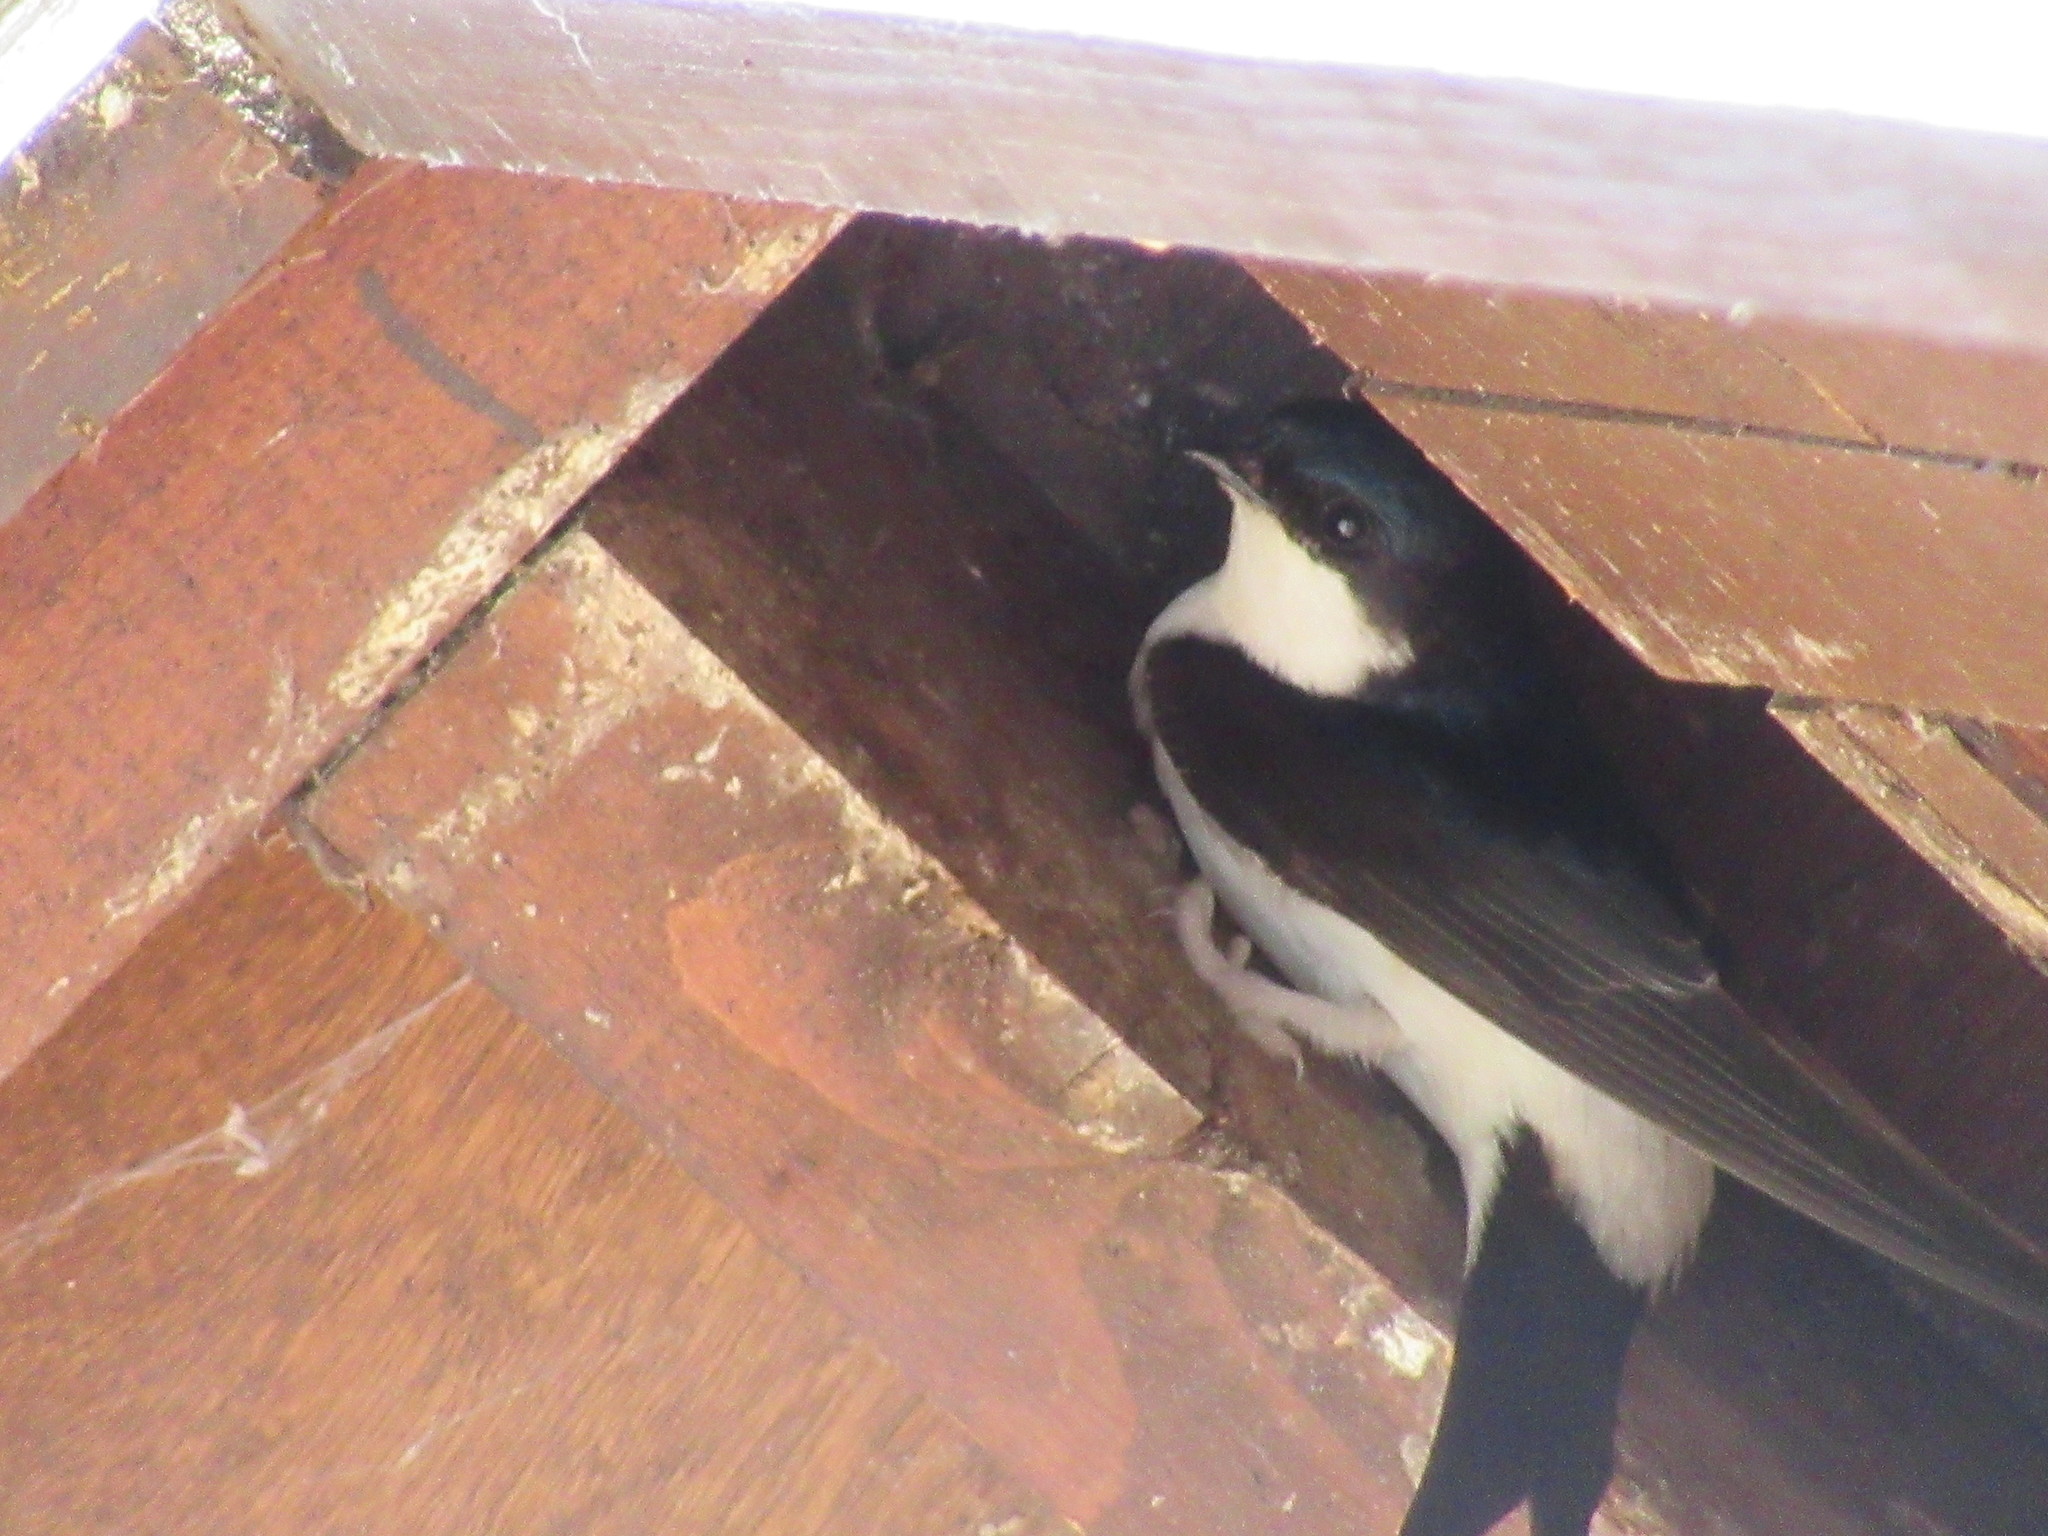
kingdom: Animalia
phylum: Chordata
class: Aves
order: Passeriformes
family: Hirundinidae
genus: Delichon
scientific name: Delichon urbicum
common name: Common house martin
